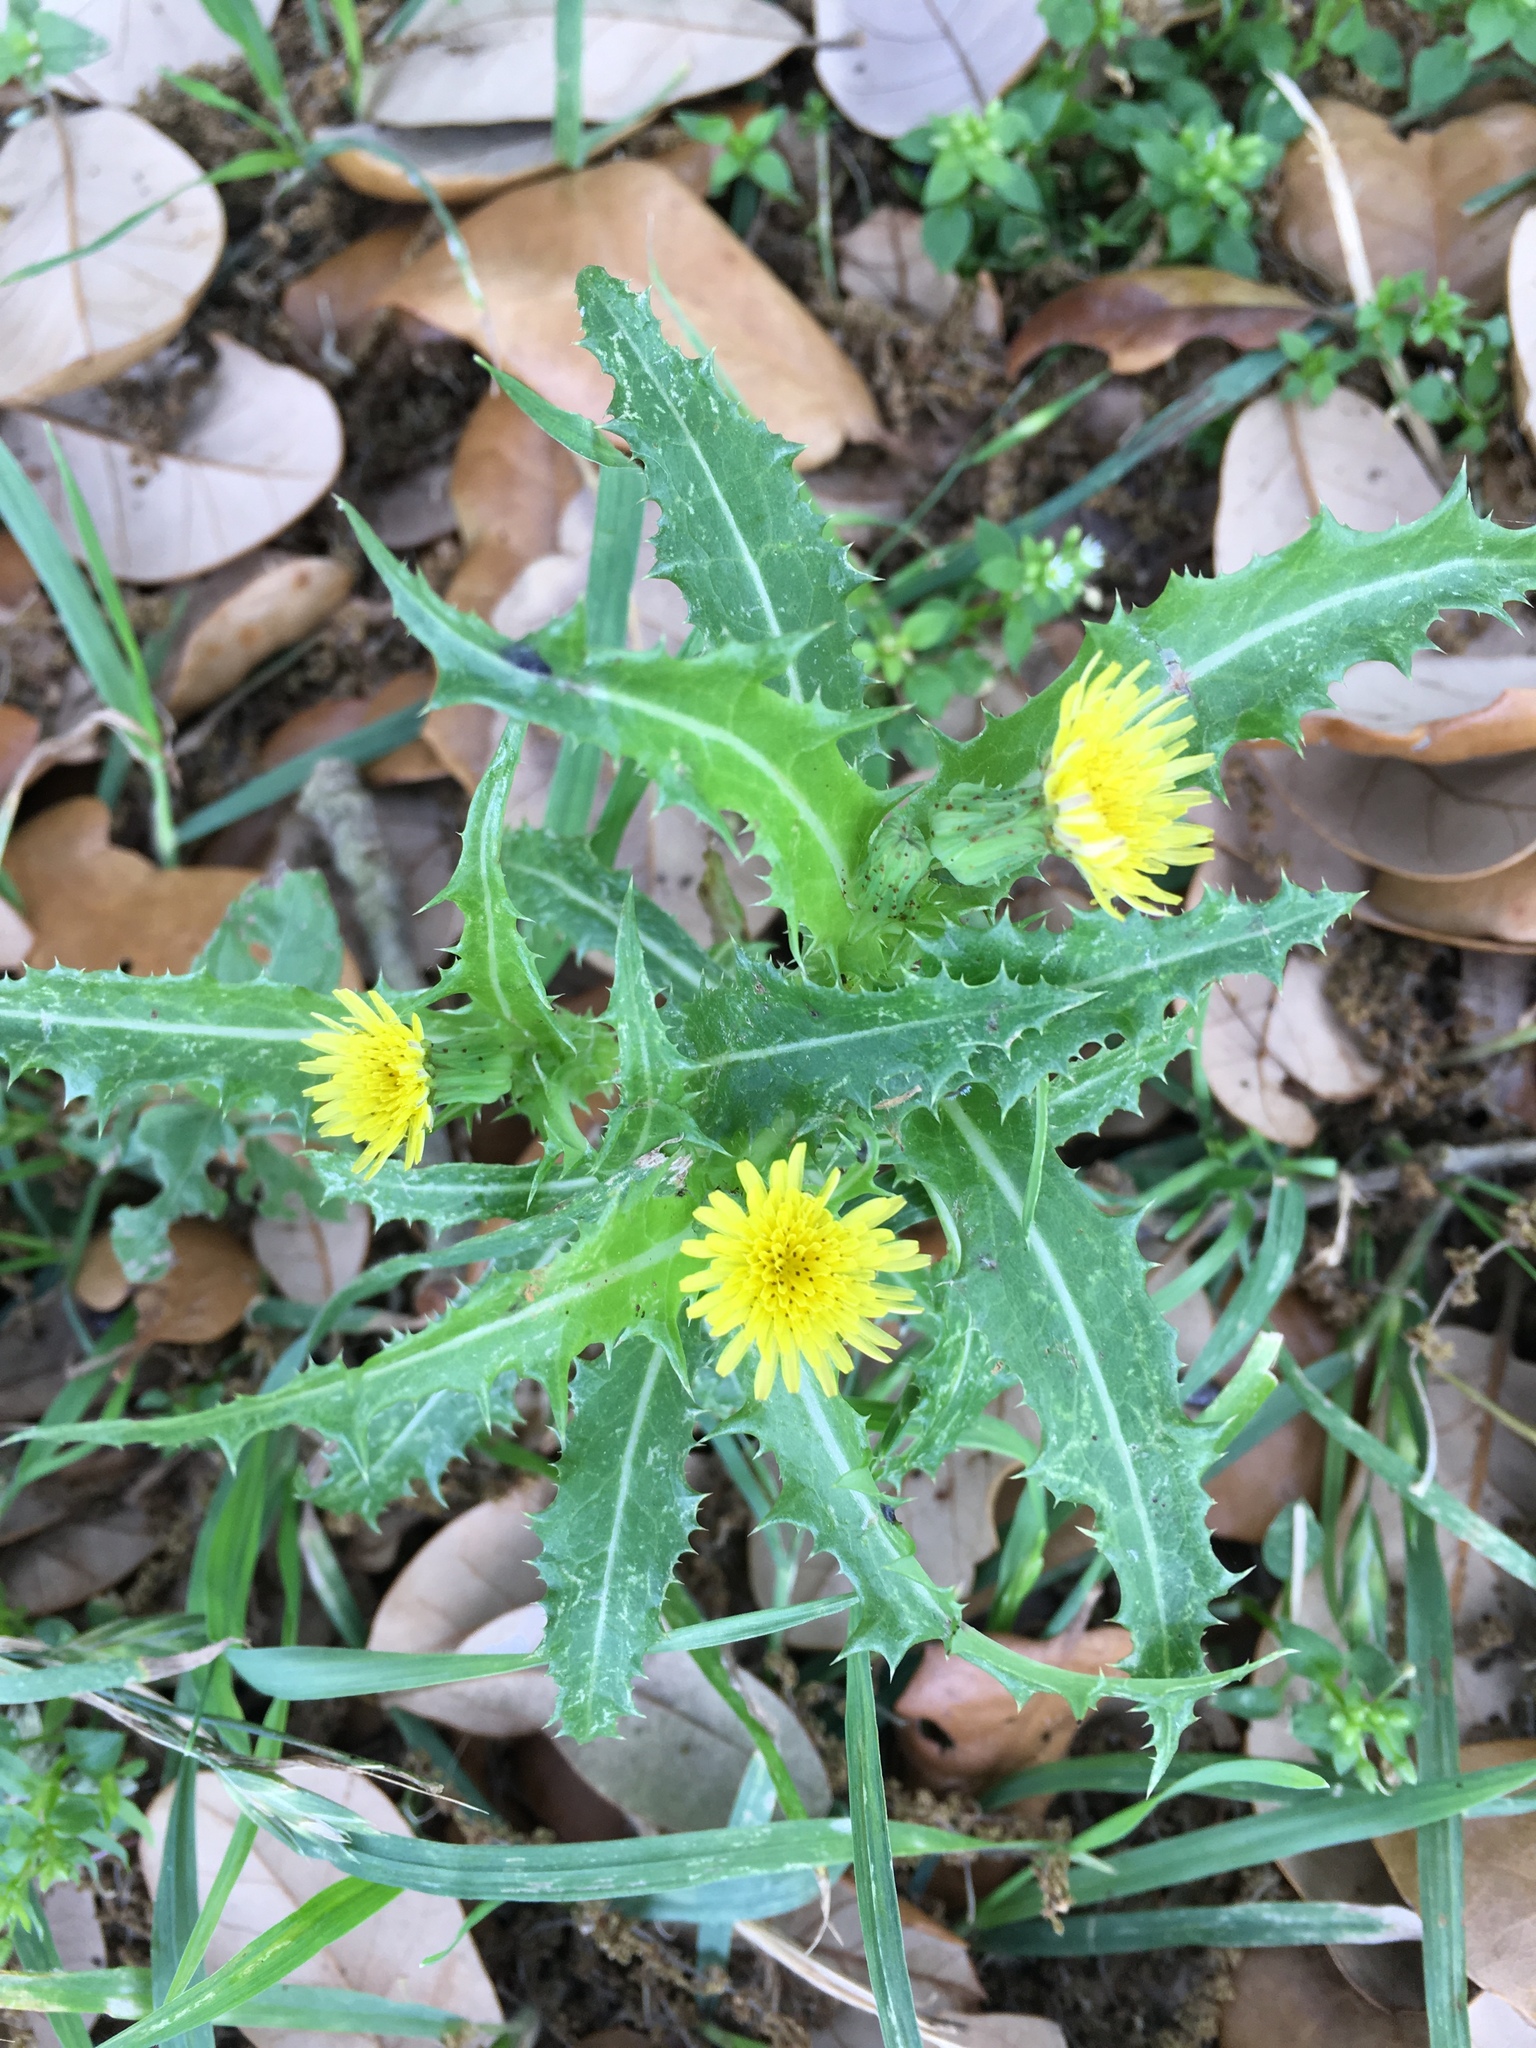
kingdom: Plantae
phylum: Tracheophyta
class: Magnoliopsida
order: Asterales
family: Asteraceae
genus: Sonchus
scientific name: Sonchus asper
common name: Prickly sow-thistle
